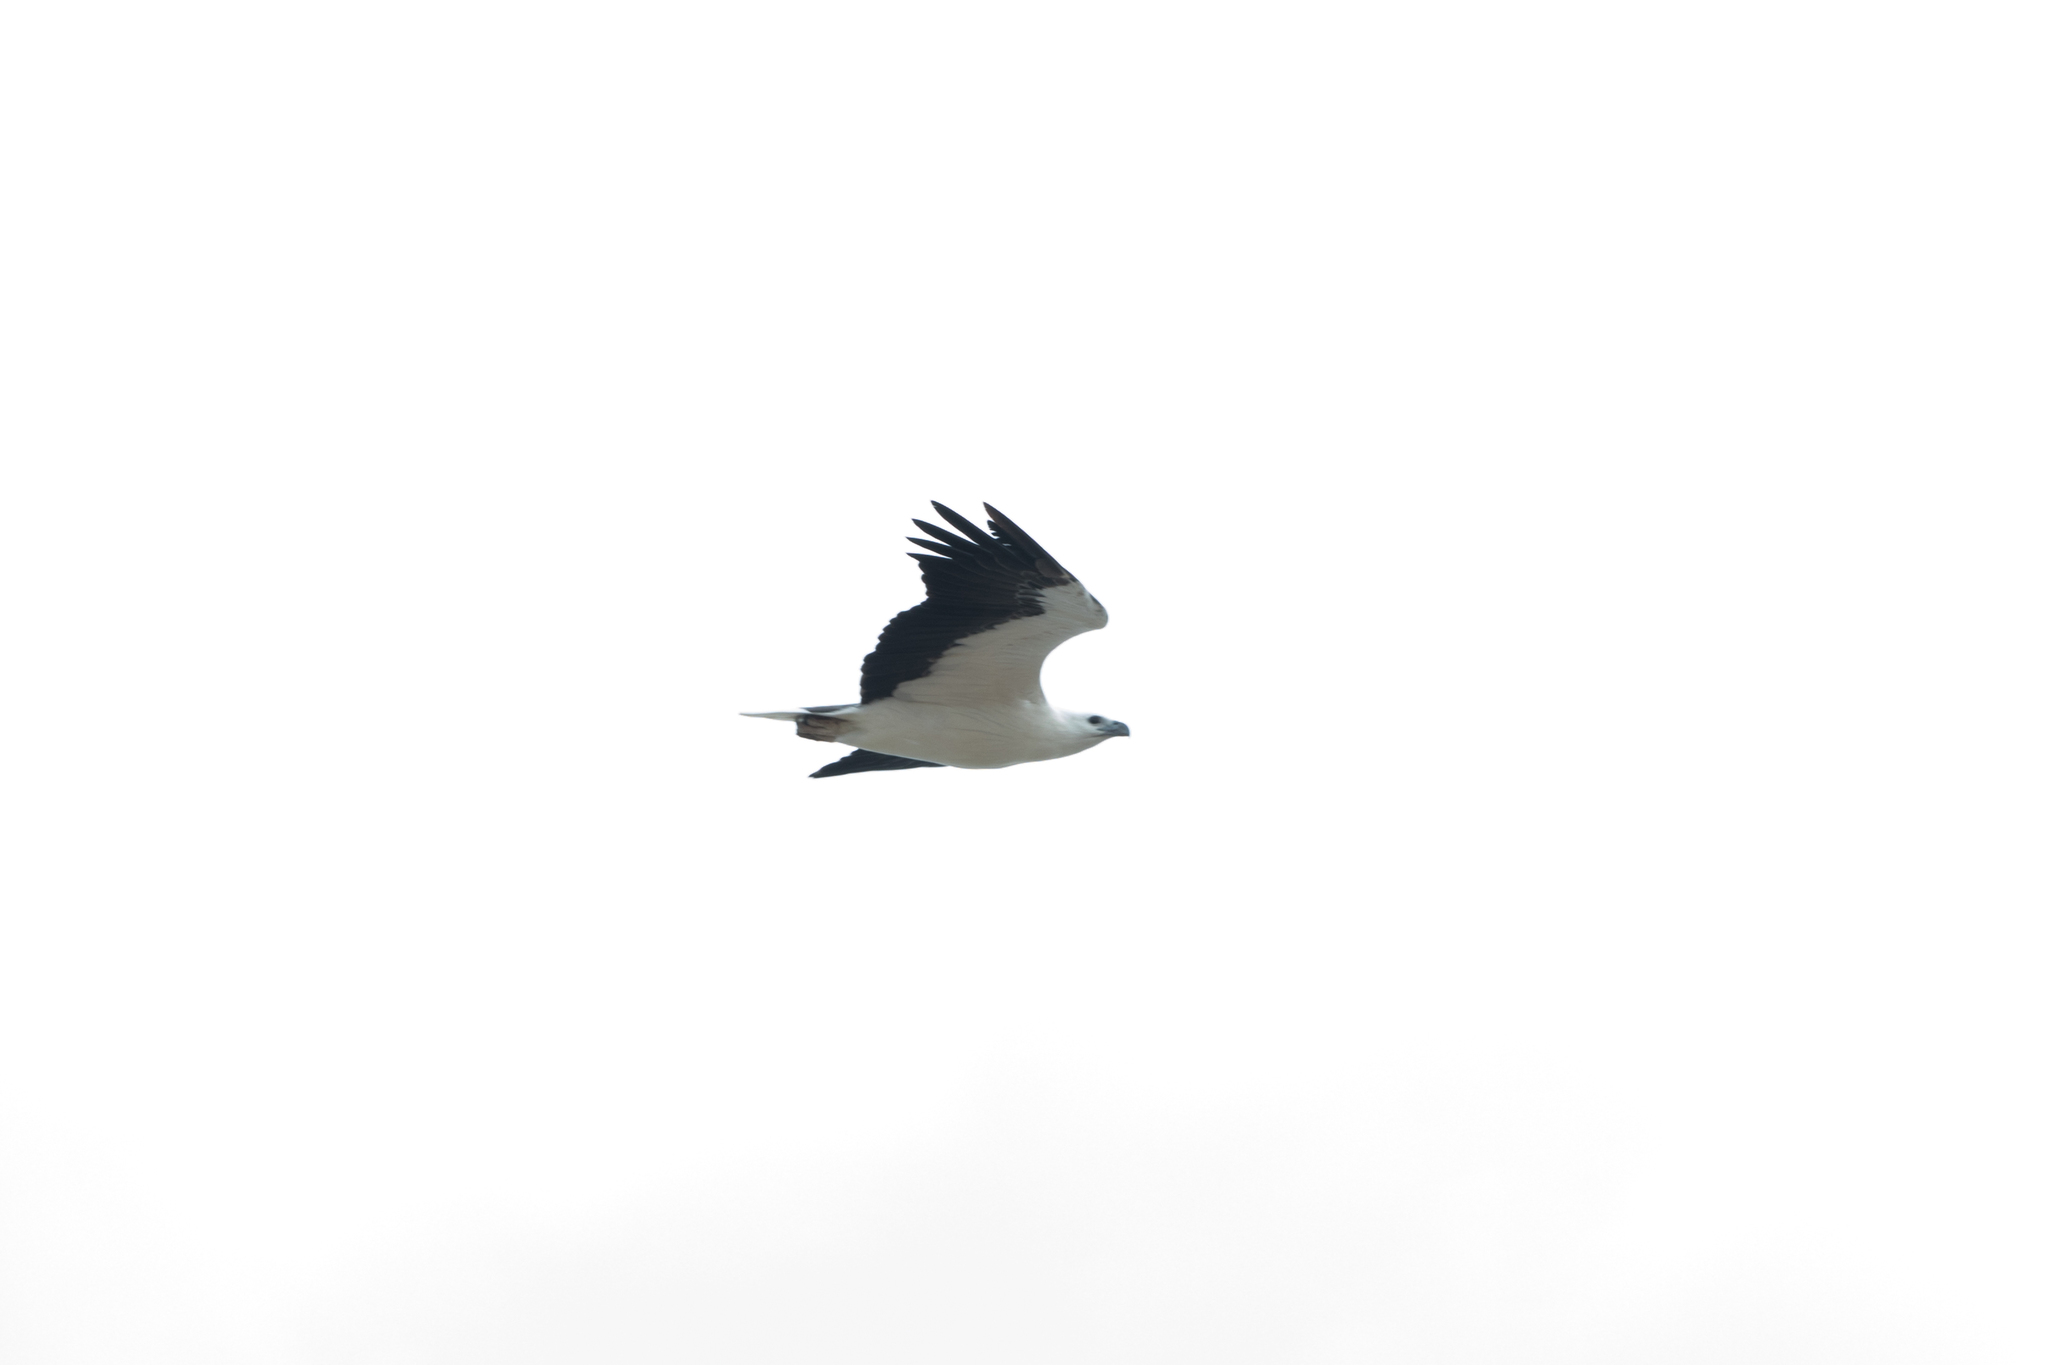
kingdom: Animalia
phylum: Chordata
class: Aves
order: Accipitriformes
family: Accipitridae
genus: Haliaeetus
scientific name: Haliaeetus leucogaster
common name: White-bellied sea eagle
